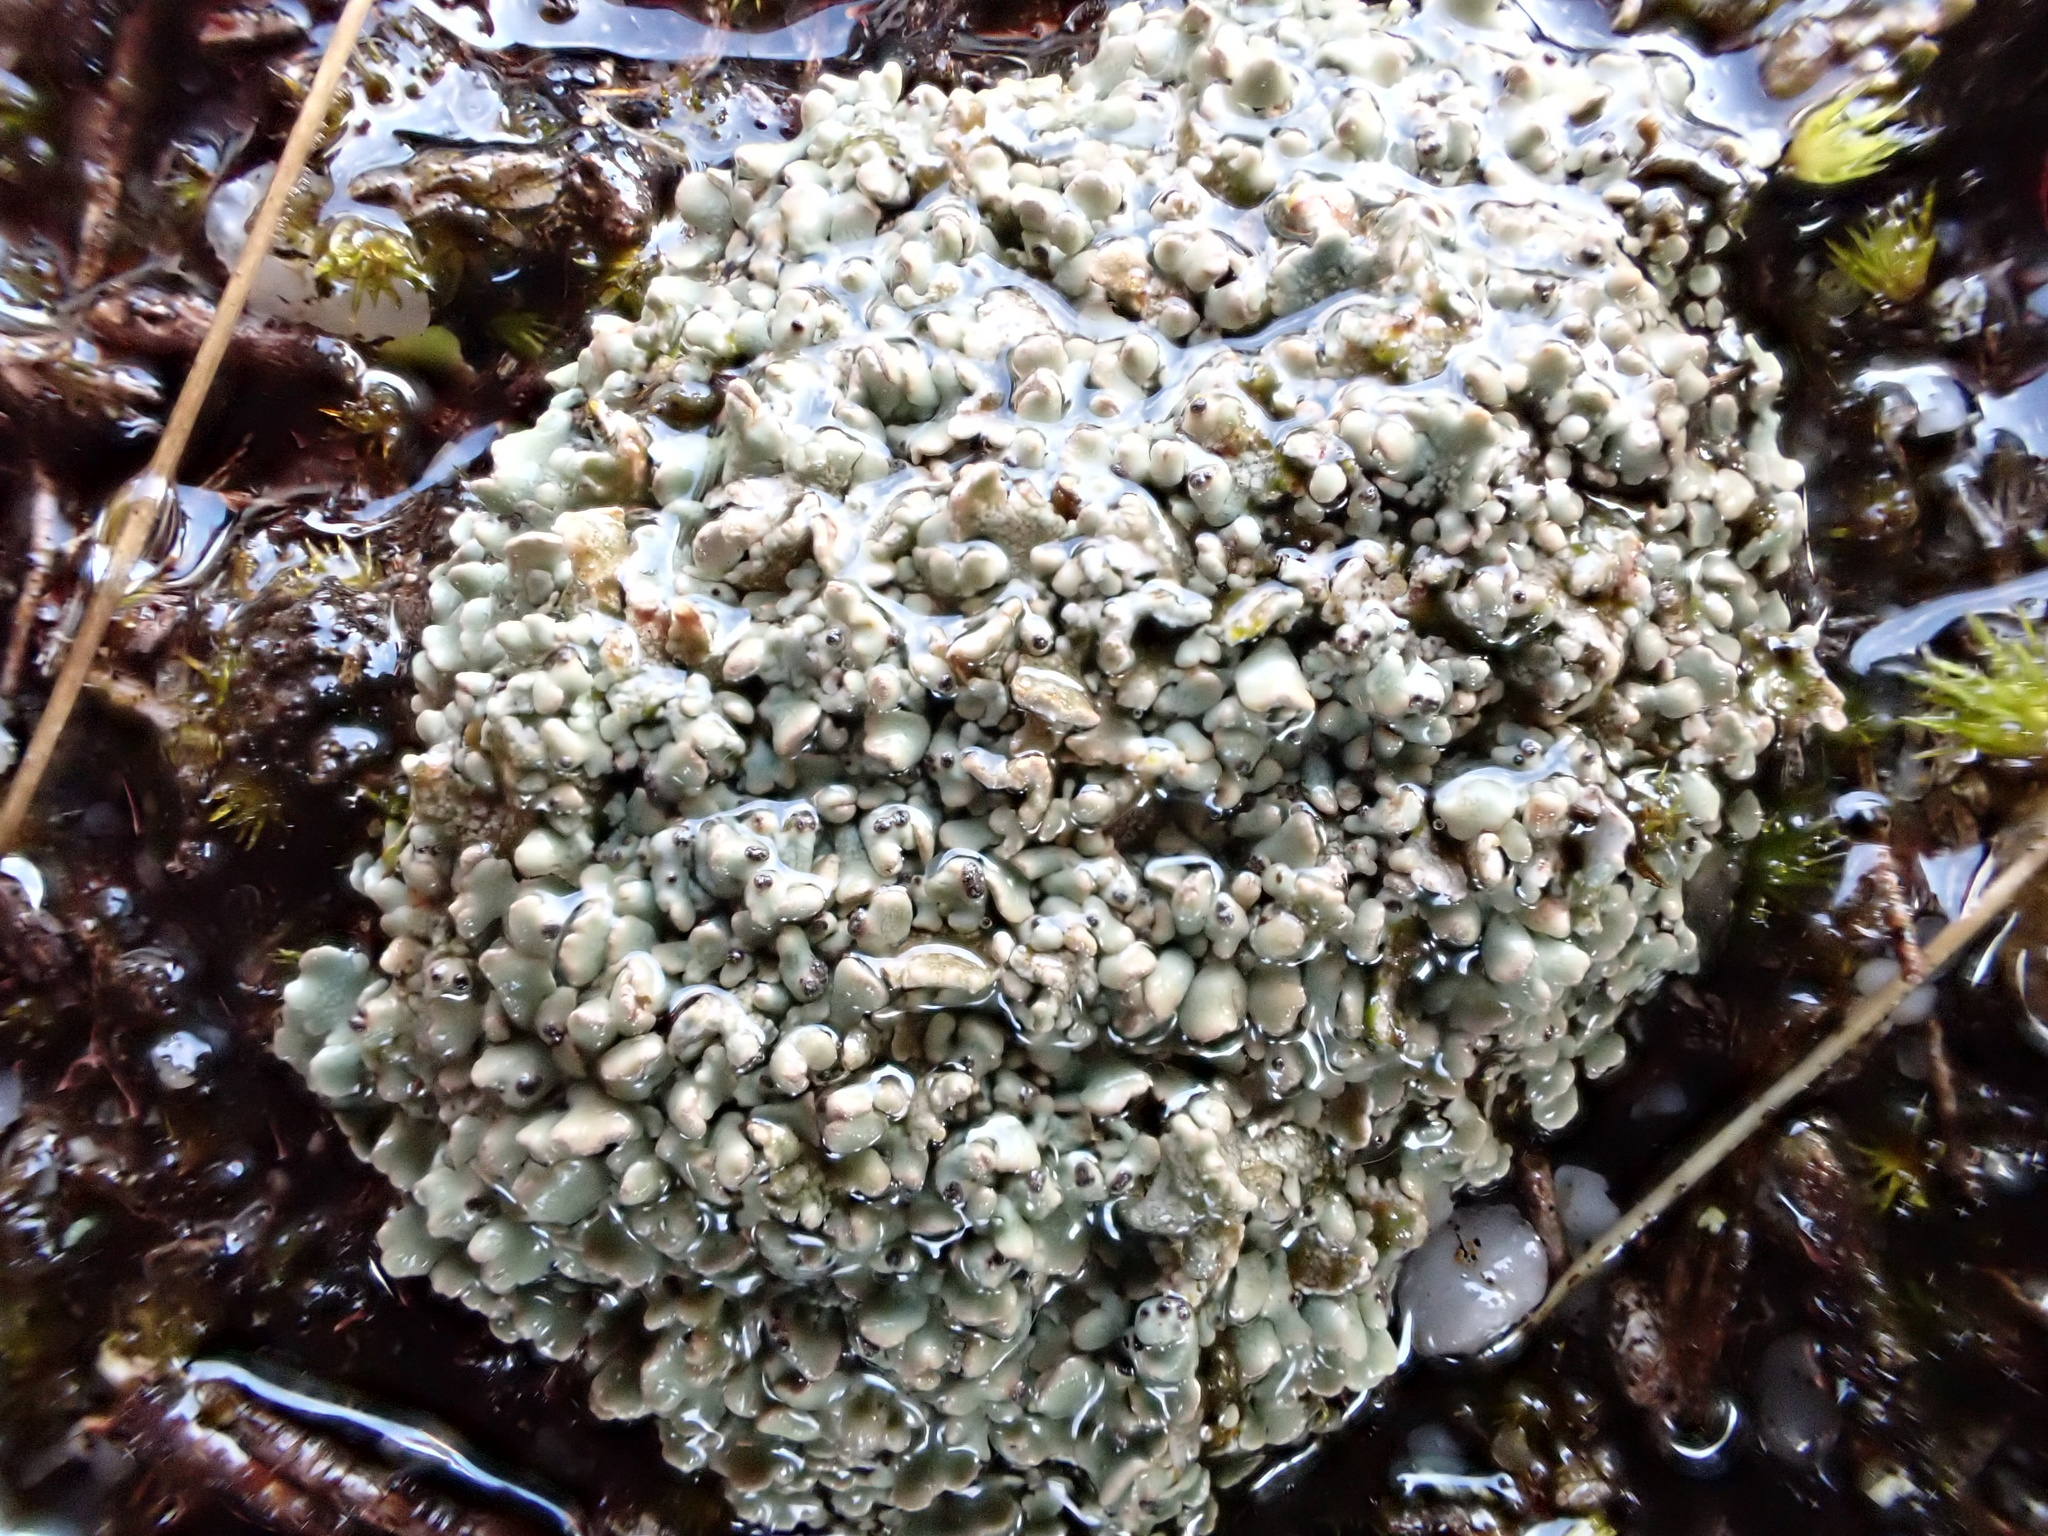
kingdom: Fungi
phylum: Ascomycota
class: Lecanoromycetes
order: Lecanorales
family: Cladoniaceae
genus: Pycnothelia
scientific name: Pycnothelia papillaria
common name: Nipple lichen
